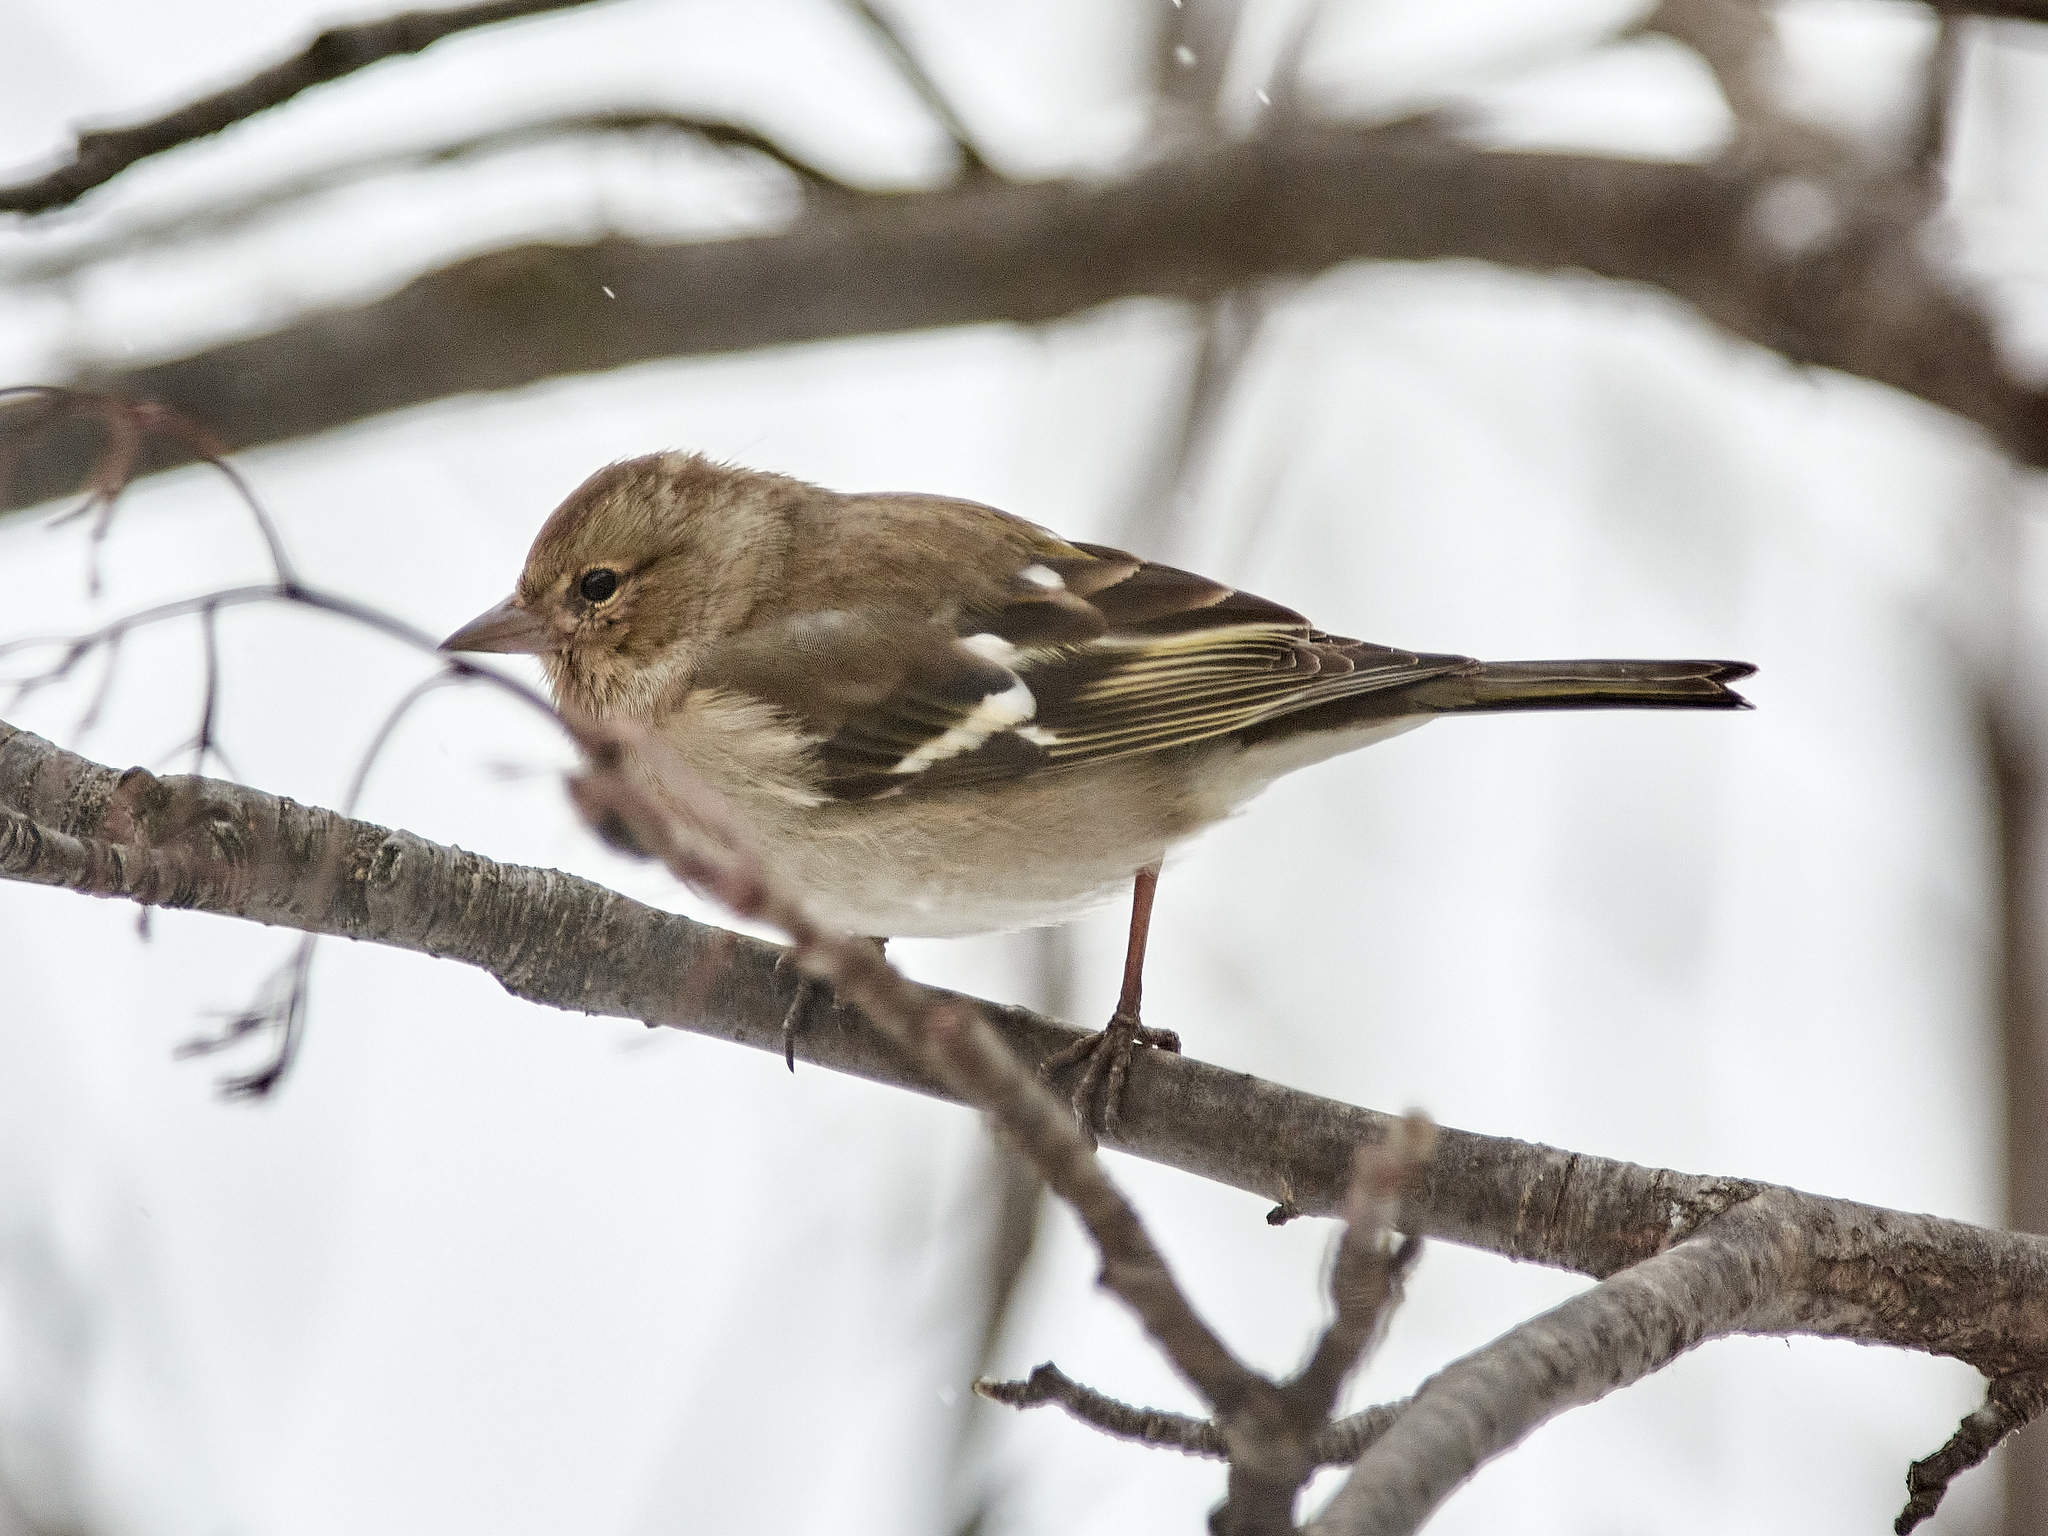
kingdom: Animalia
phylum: Chordata
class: Aves
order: Passeriformes
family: Fringillidae
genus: Fringilla
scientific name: Fringilla coelebs
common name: Common chaffinch
